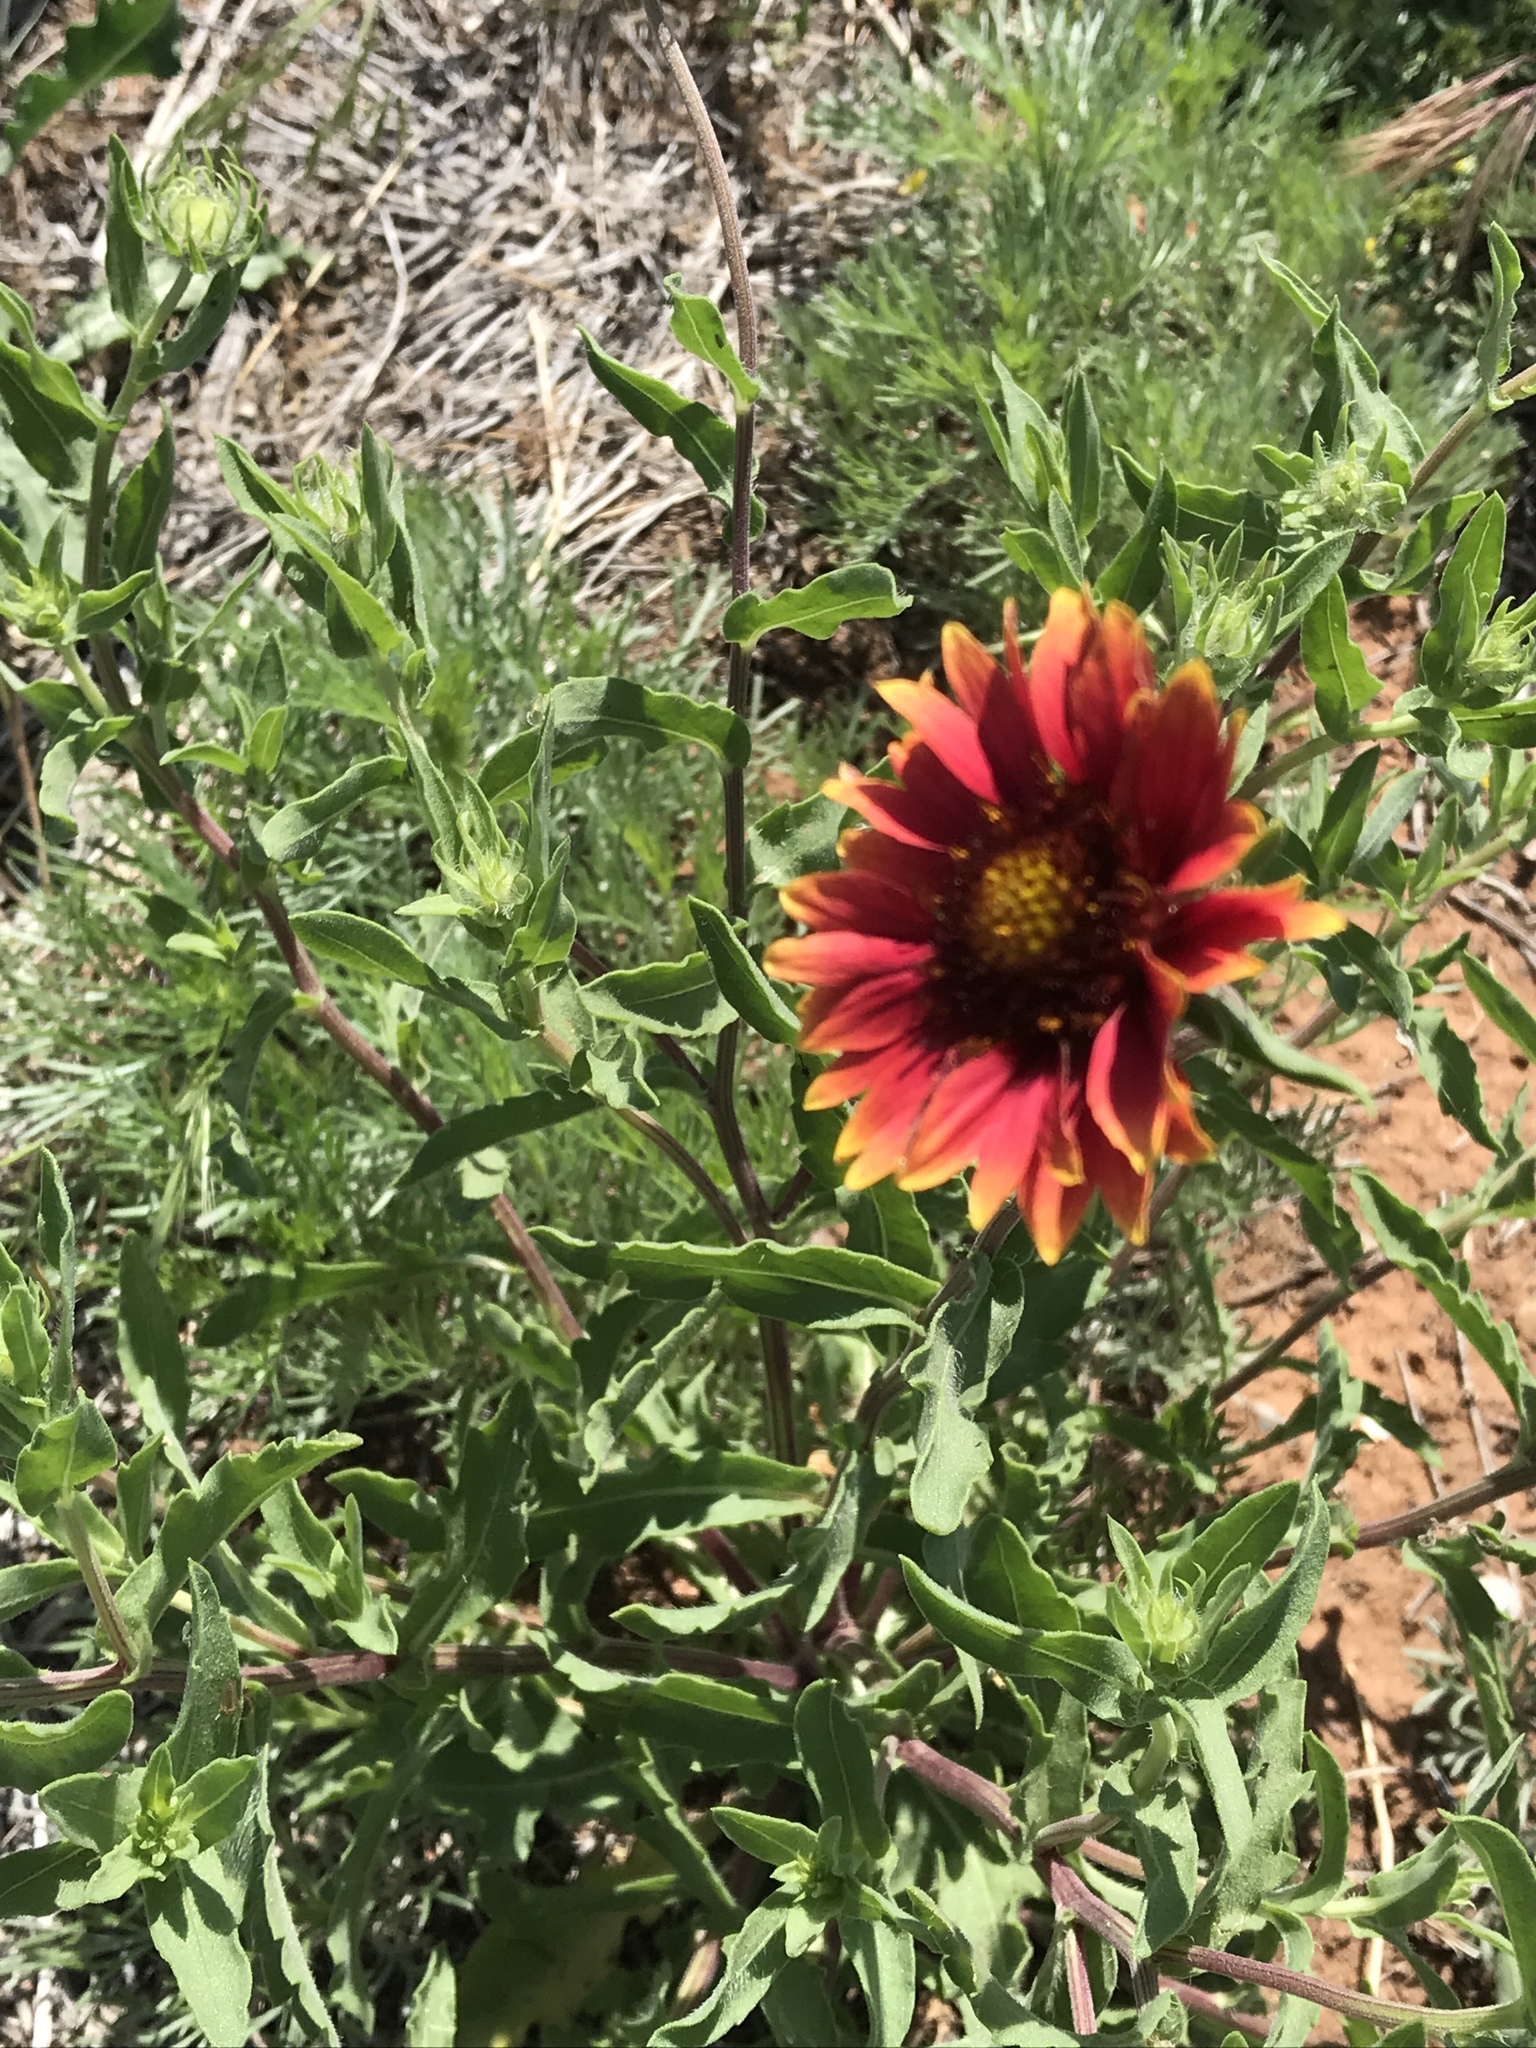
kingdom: Plantae
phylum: Tracheophyta
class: Magnoliopsida
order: Asterales
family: Asteraceae
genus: Gaillardia
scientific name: Gaillardia pulchella
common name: Firewheel
